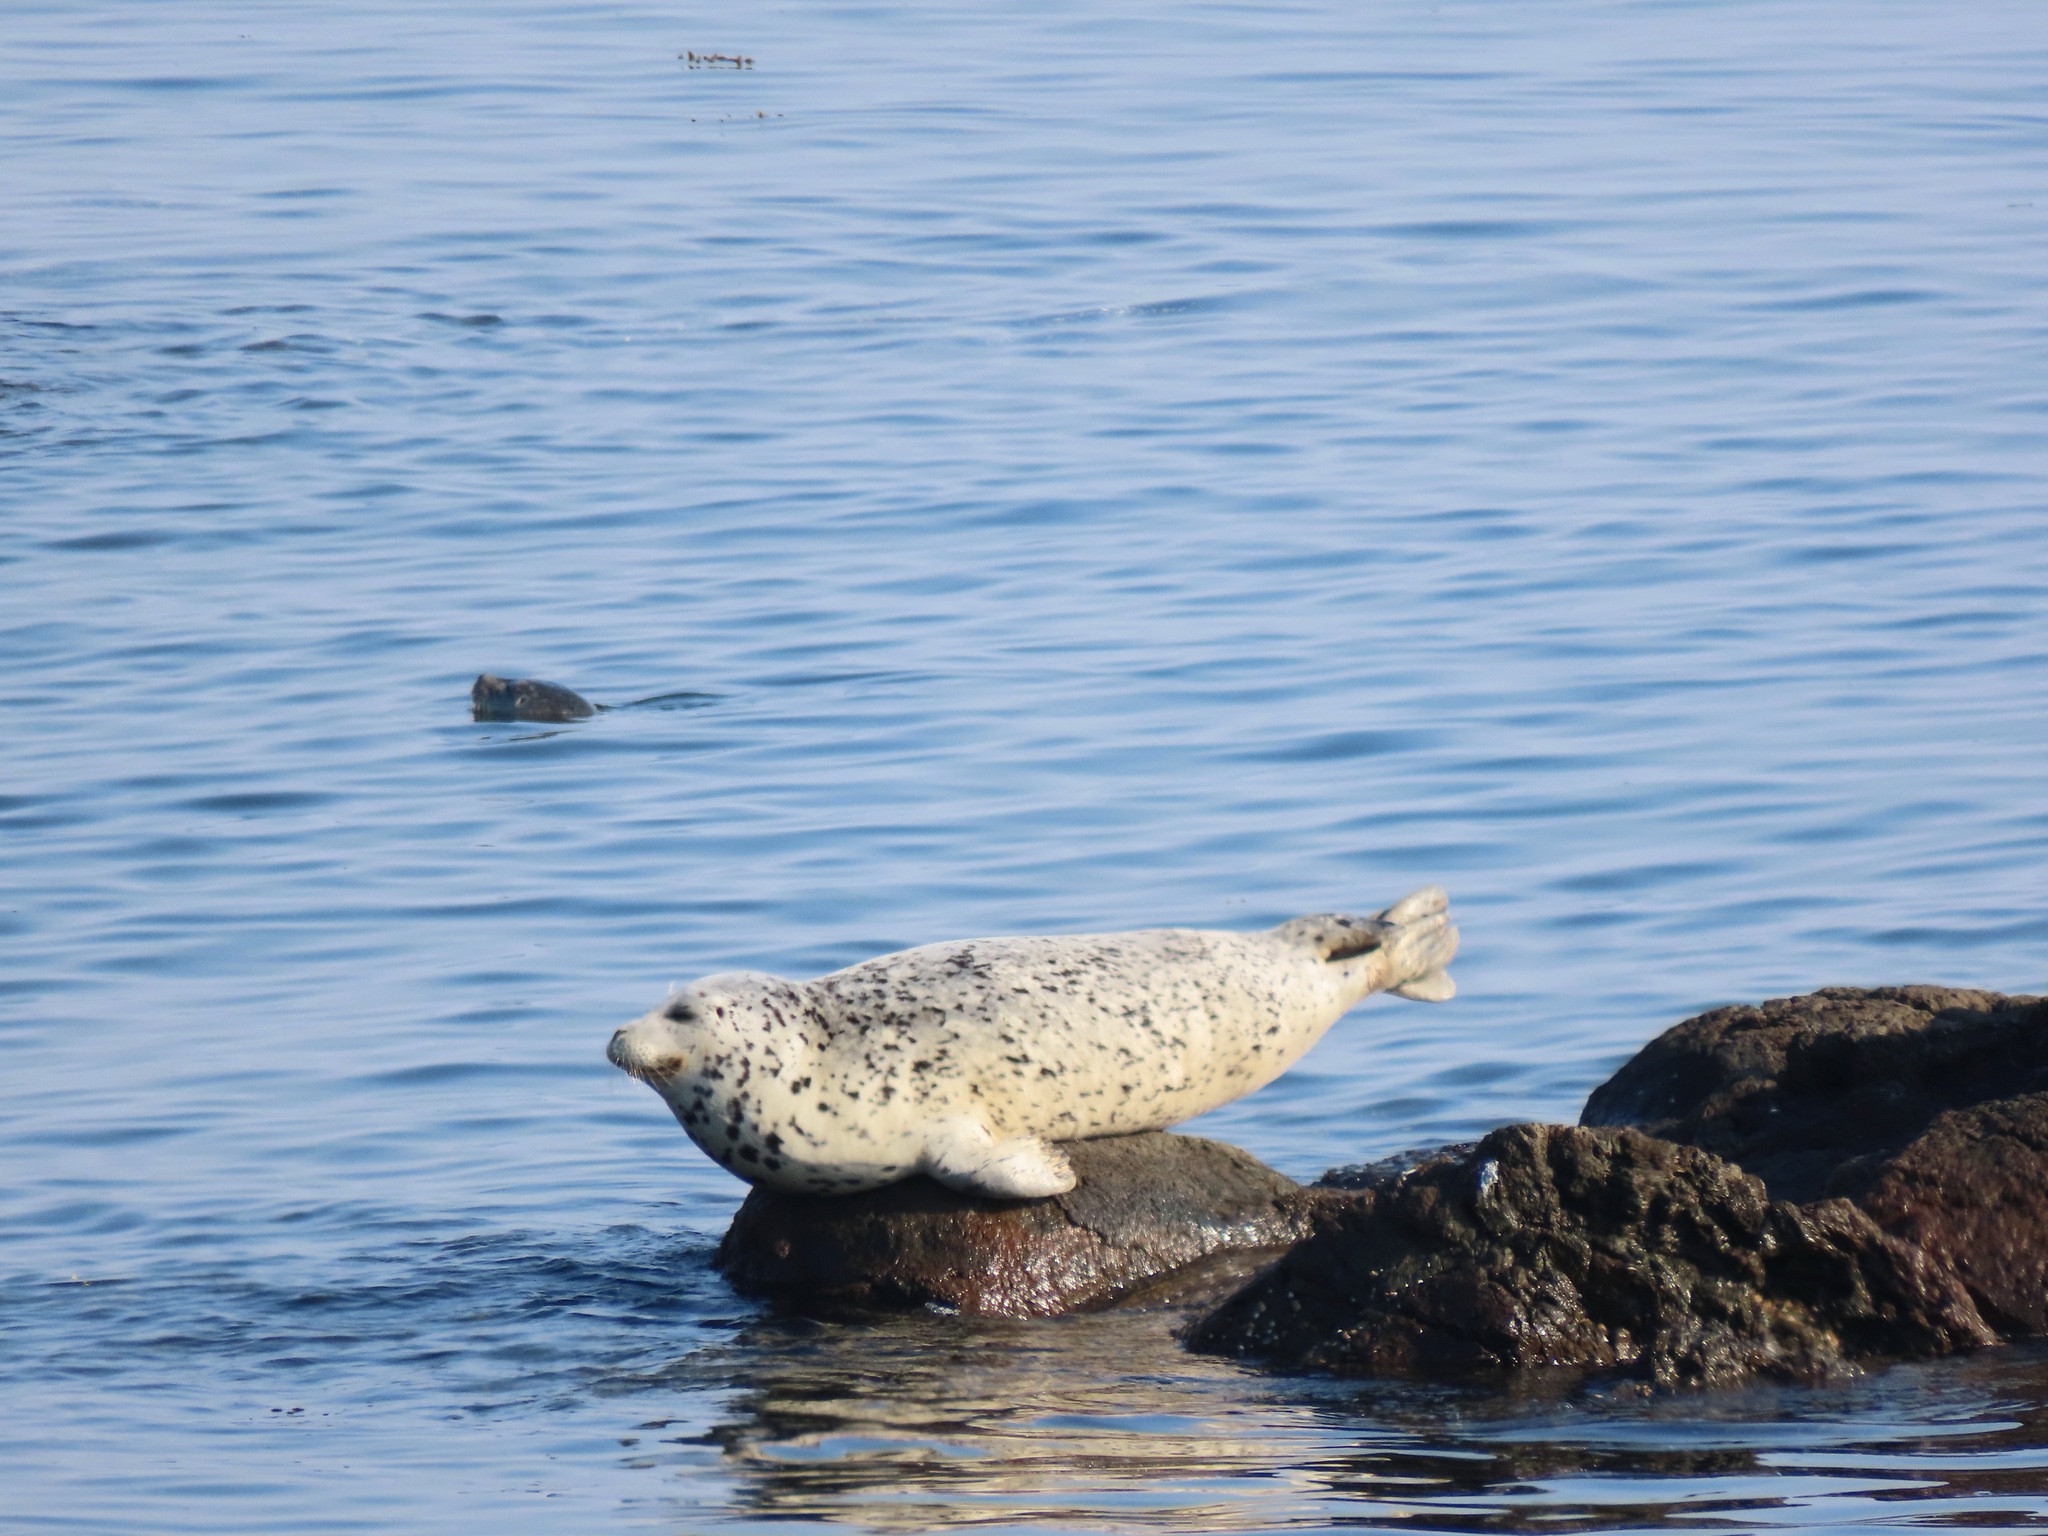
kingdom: Animalia
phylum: Chordata
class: Mammalia
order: Carnivora
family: Phocidae
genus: Phoca
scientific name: Phoca vitulina
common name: Harbor seal
